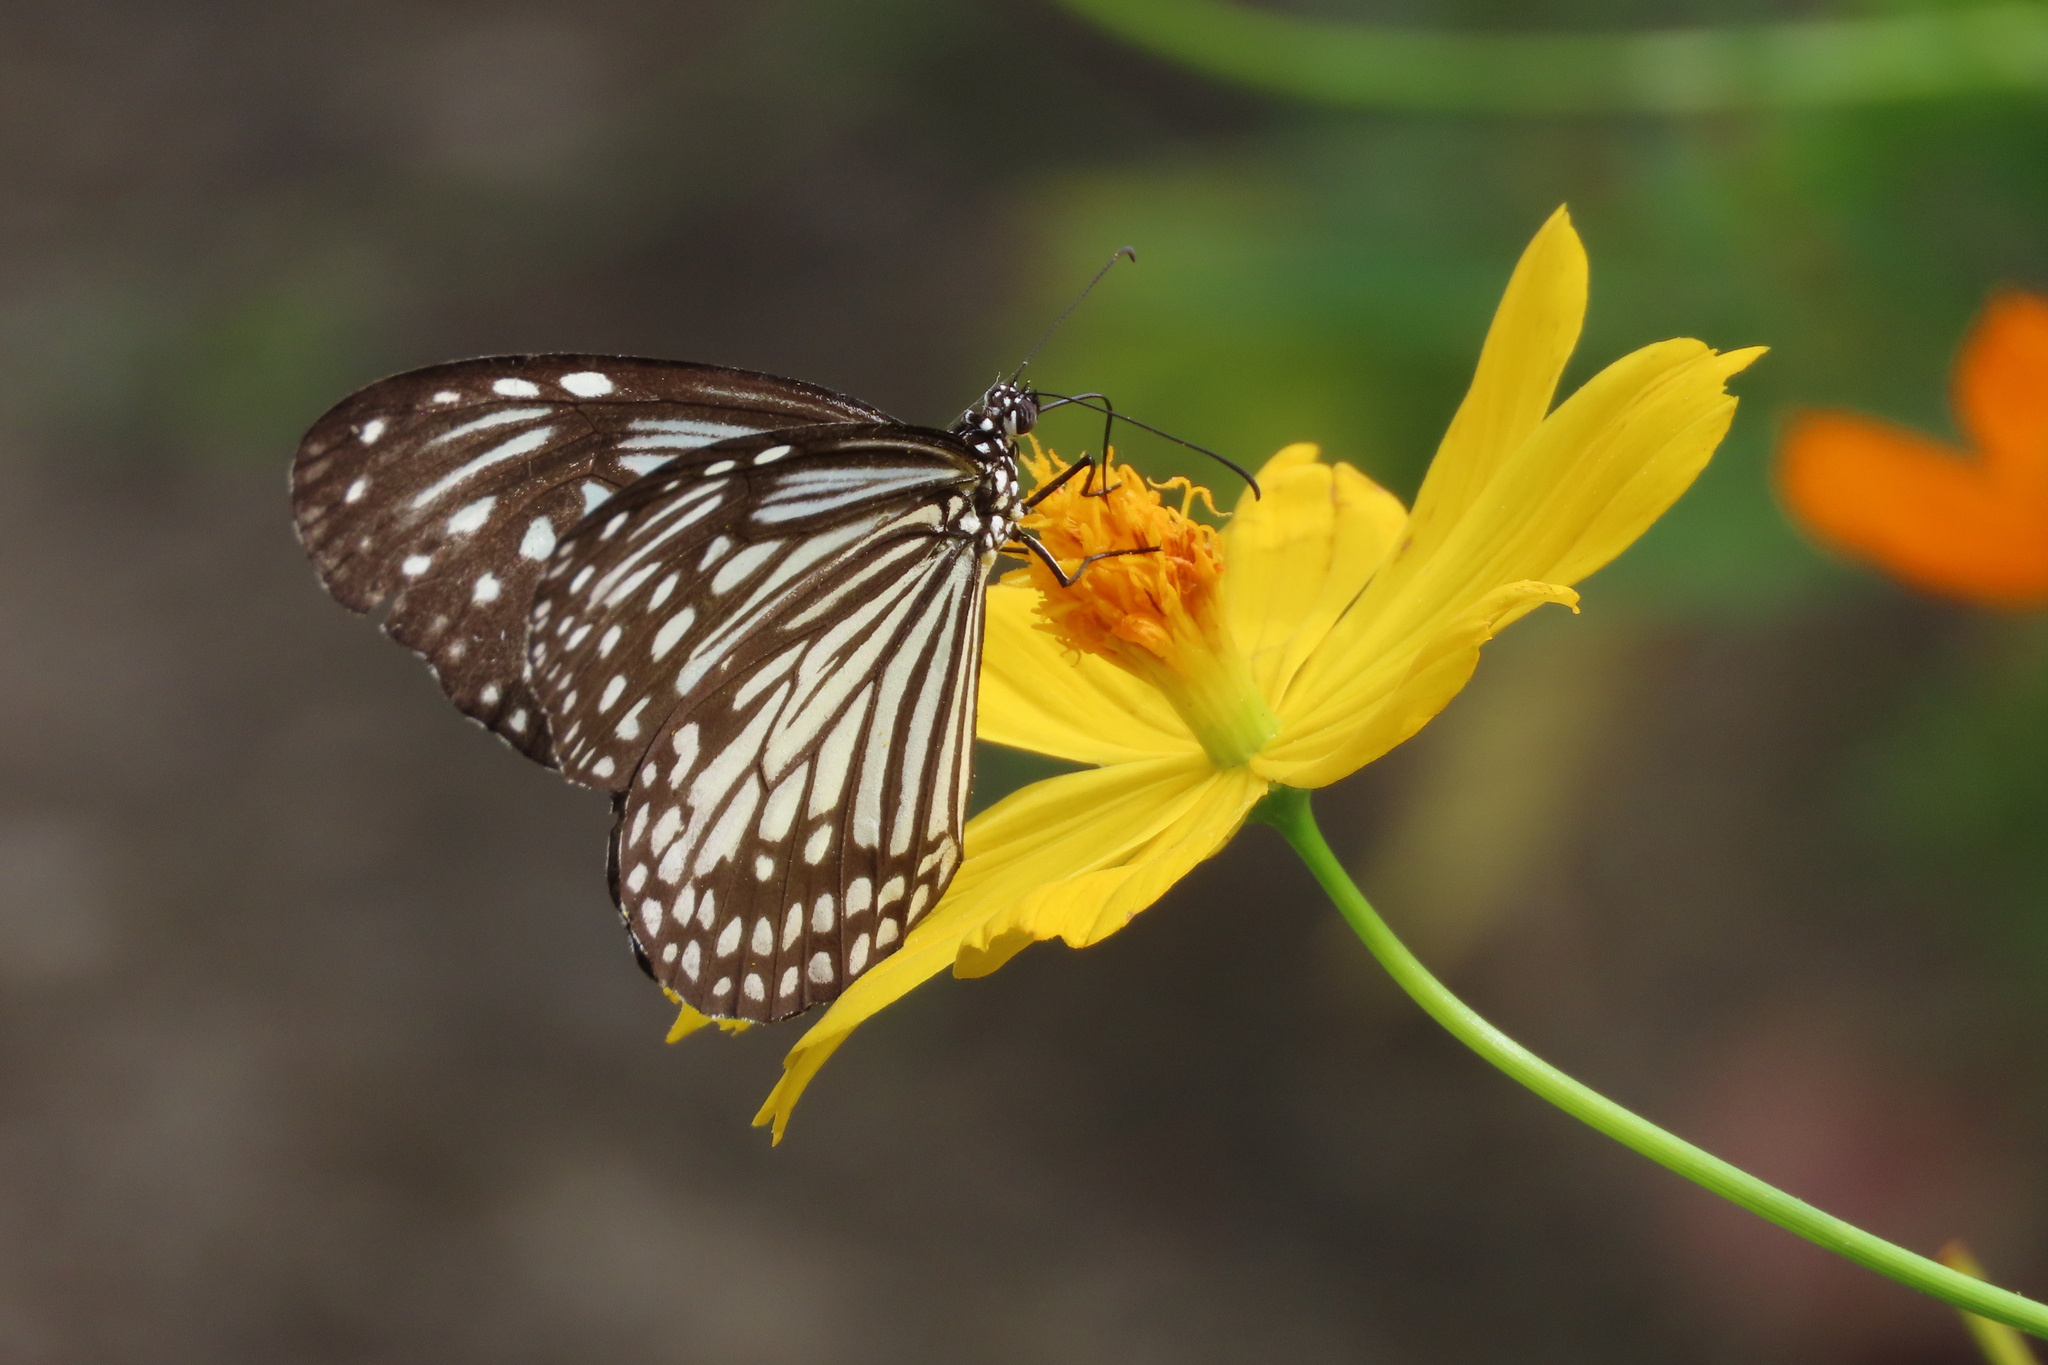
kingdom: Animalia
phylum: Arthropoda
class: Insecta
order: Lepidoptera
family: Nymphalidae
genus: Parantica
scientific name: Parantica aglea
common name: Glassy tiger
